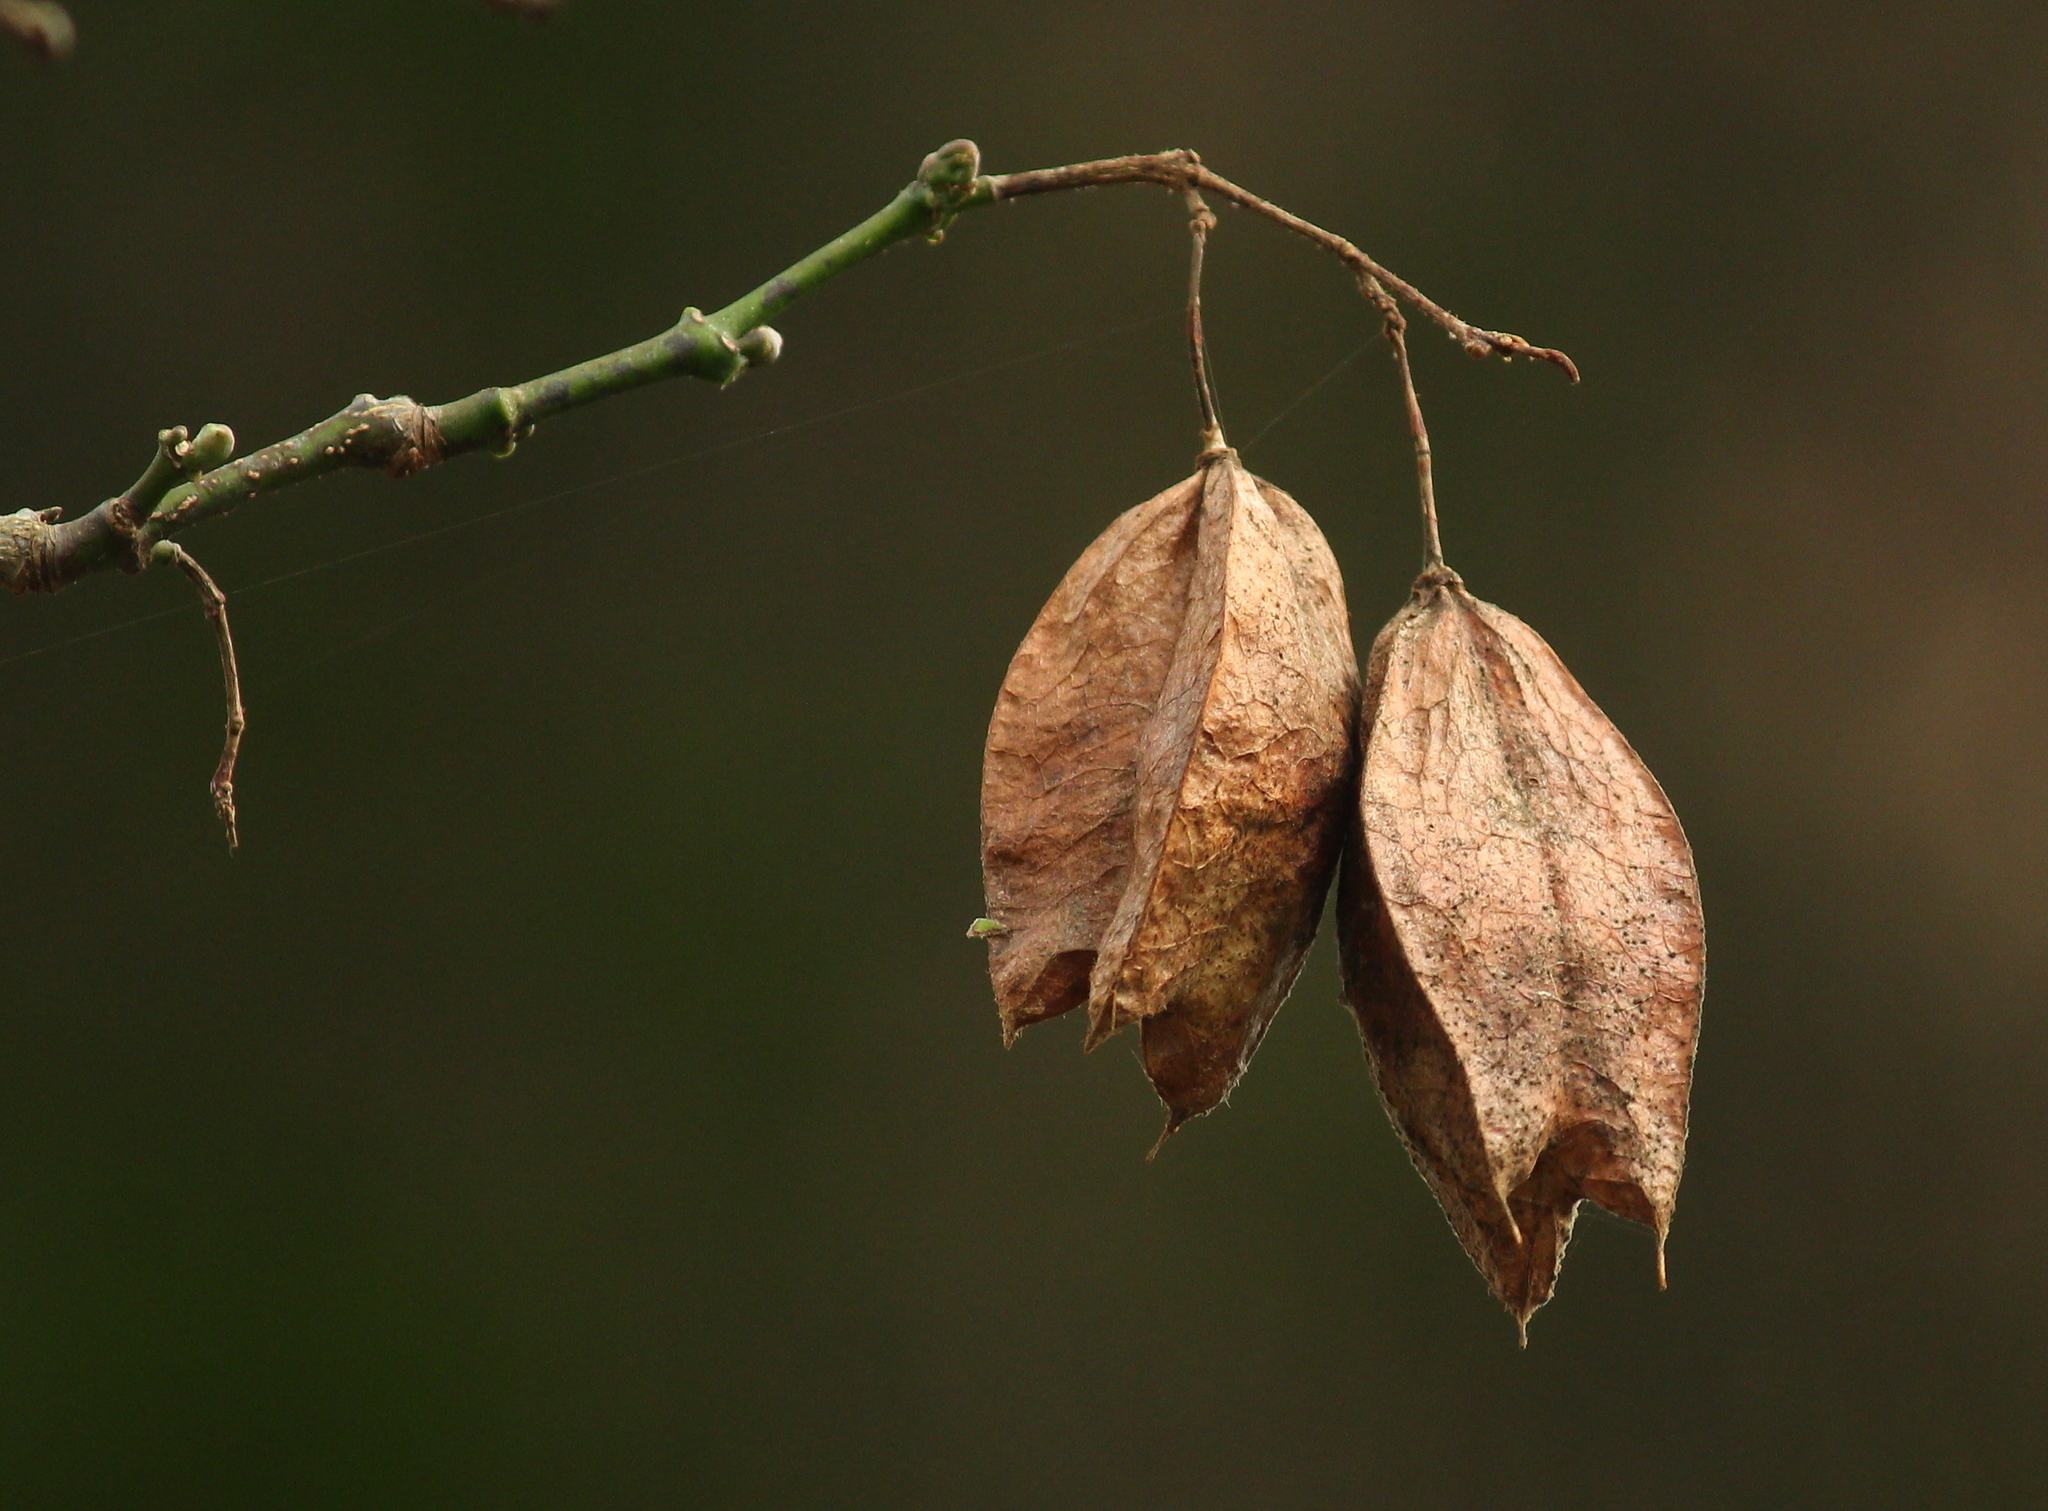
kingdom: Plantae
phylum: Tracheophyta
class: Magnoliopsida
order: Crossosomatales
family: Staphyleaceae
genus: Staphylea
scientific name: Staphylea trifolia
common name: American bladdernut
